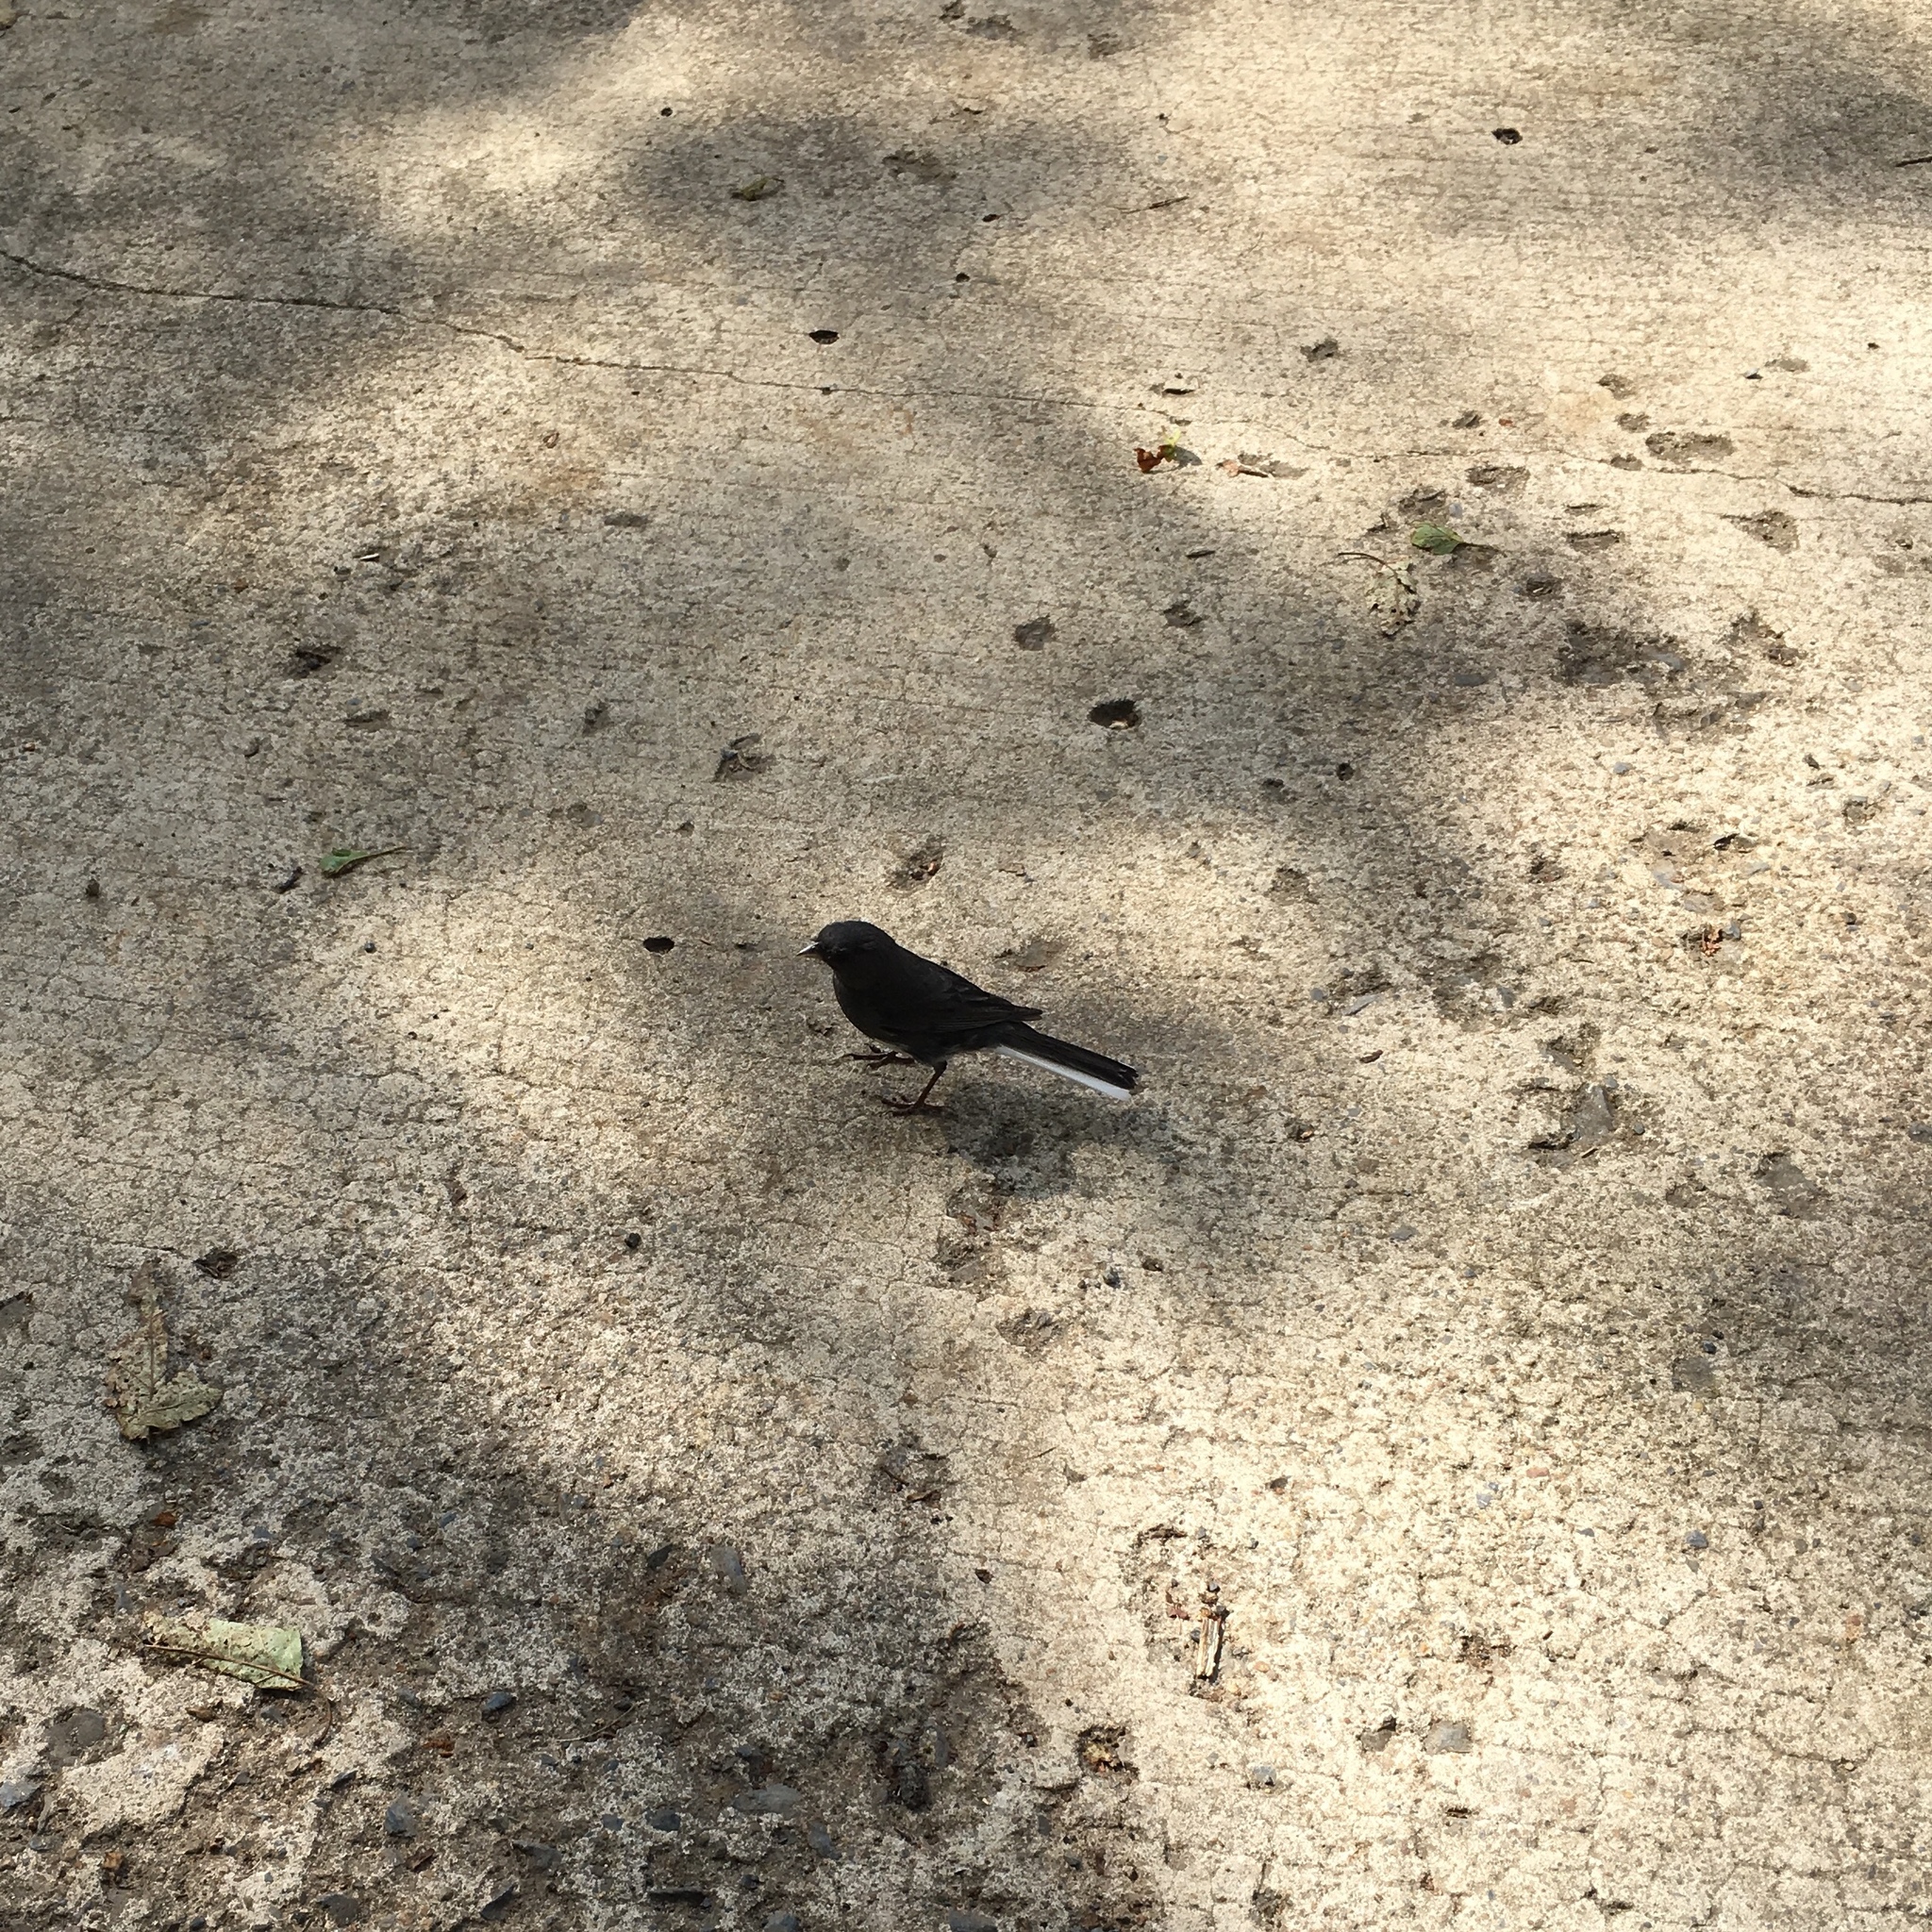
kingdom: Animalia
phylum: Chordata
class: Aves
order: Passeriformes
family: Passerellidae
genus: Junco
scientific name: Junco hyemalis
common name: Dark-eyed junco
